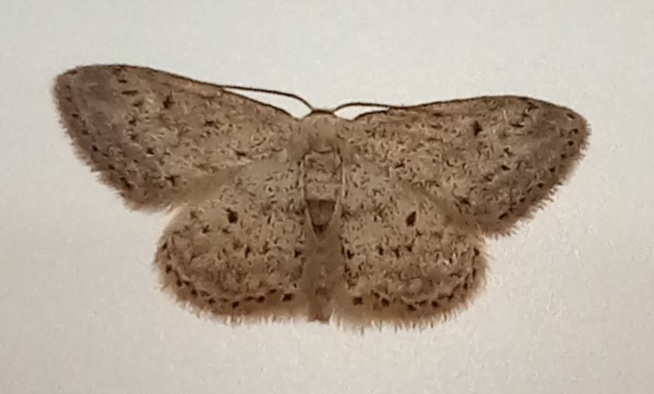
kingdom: Animalia
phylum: Arthropoda
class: Insecta
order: Lepidoptera
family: Geometridae
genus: Idaea
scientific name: Idaea seriata
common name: Small dusty wave
